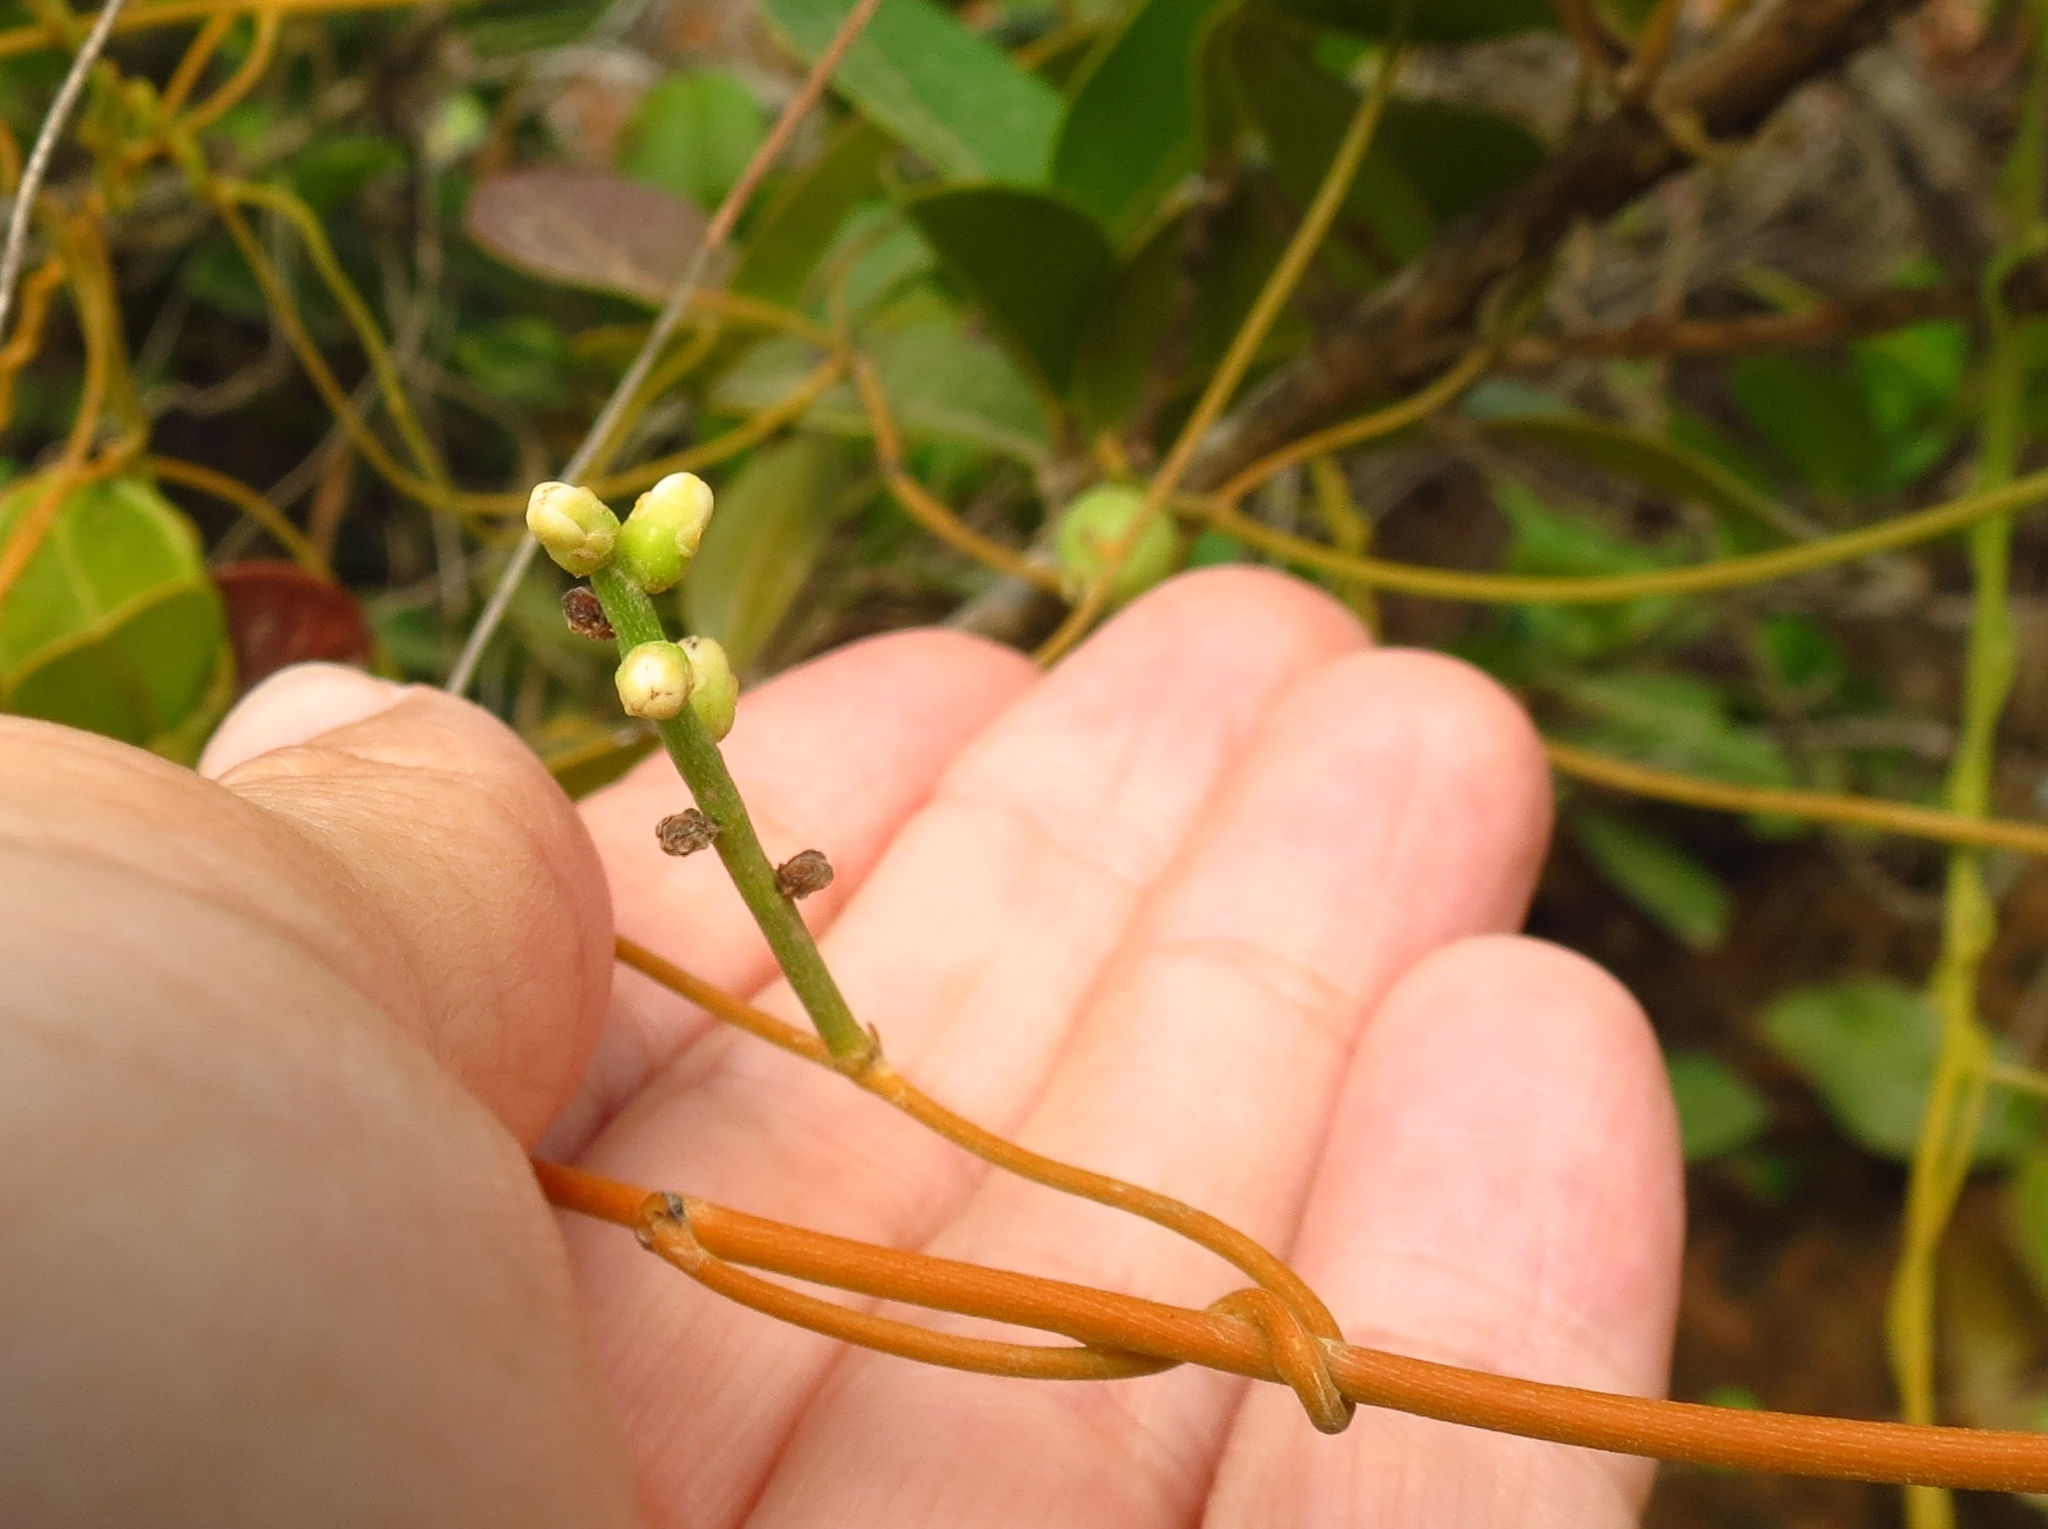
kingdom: Plantae
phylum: Tracheophyta
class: Magnoliopsida
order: Laurales
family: Lauraceae
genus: Cassytha
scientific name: Cassytha filiformis
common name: Dodder-laurel
